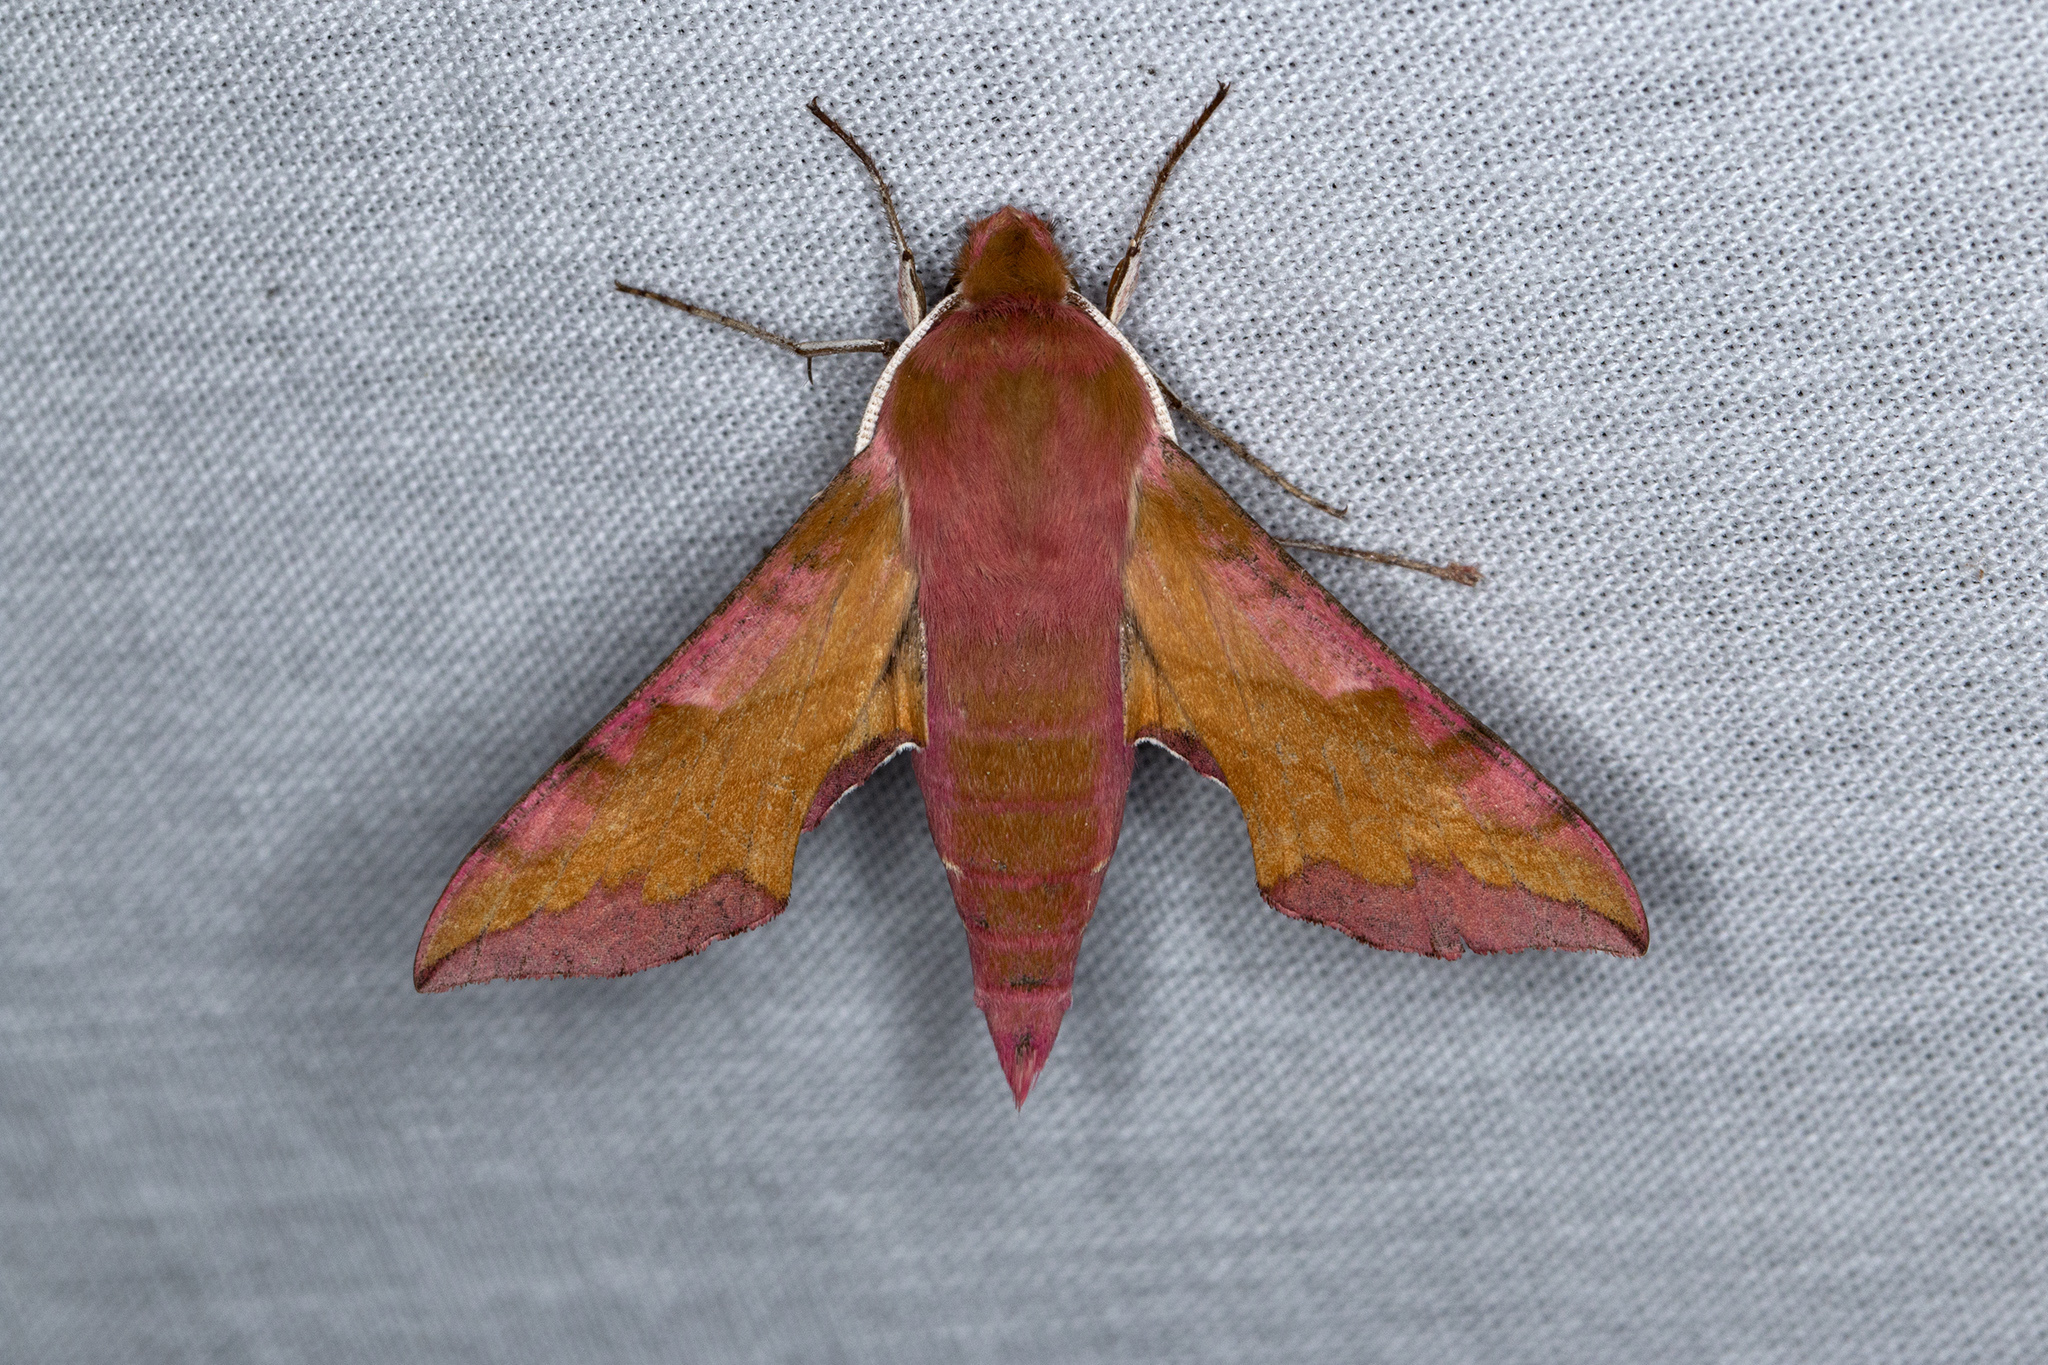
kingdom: Animalia
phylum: Arthropoda
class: Insecta
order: Lepidoptera
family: Sphingidae
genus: Deilephila
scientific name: Deilephila porcellus
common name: Small elephant hawk-moth
